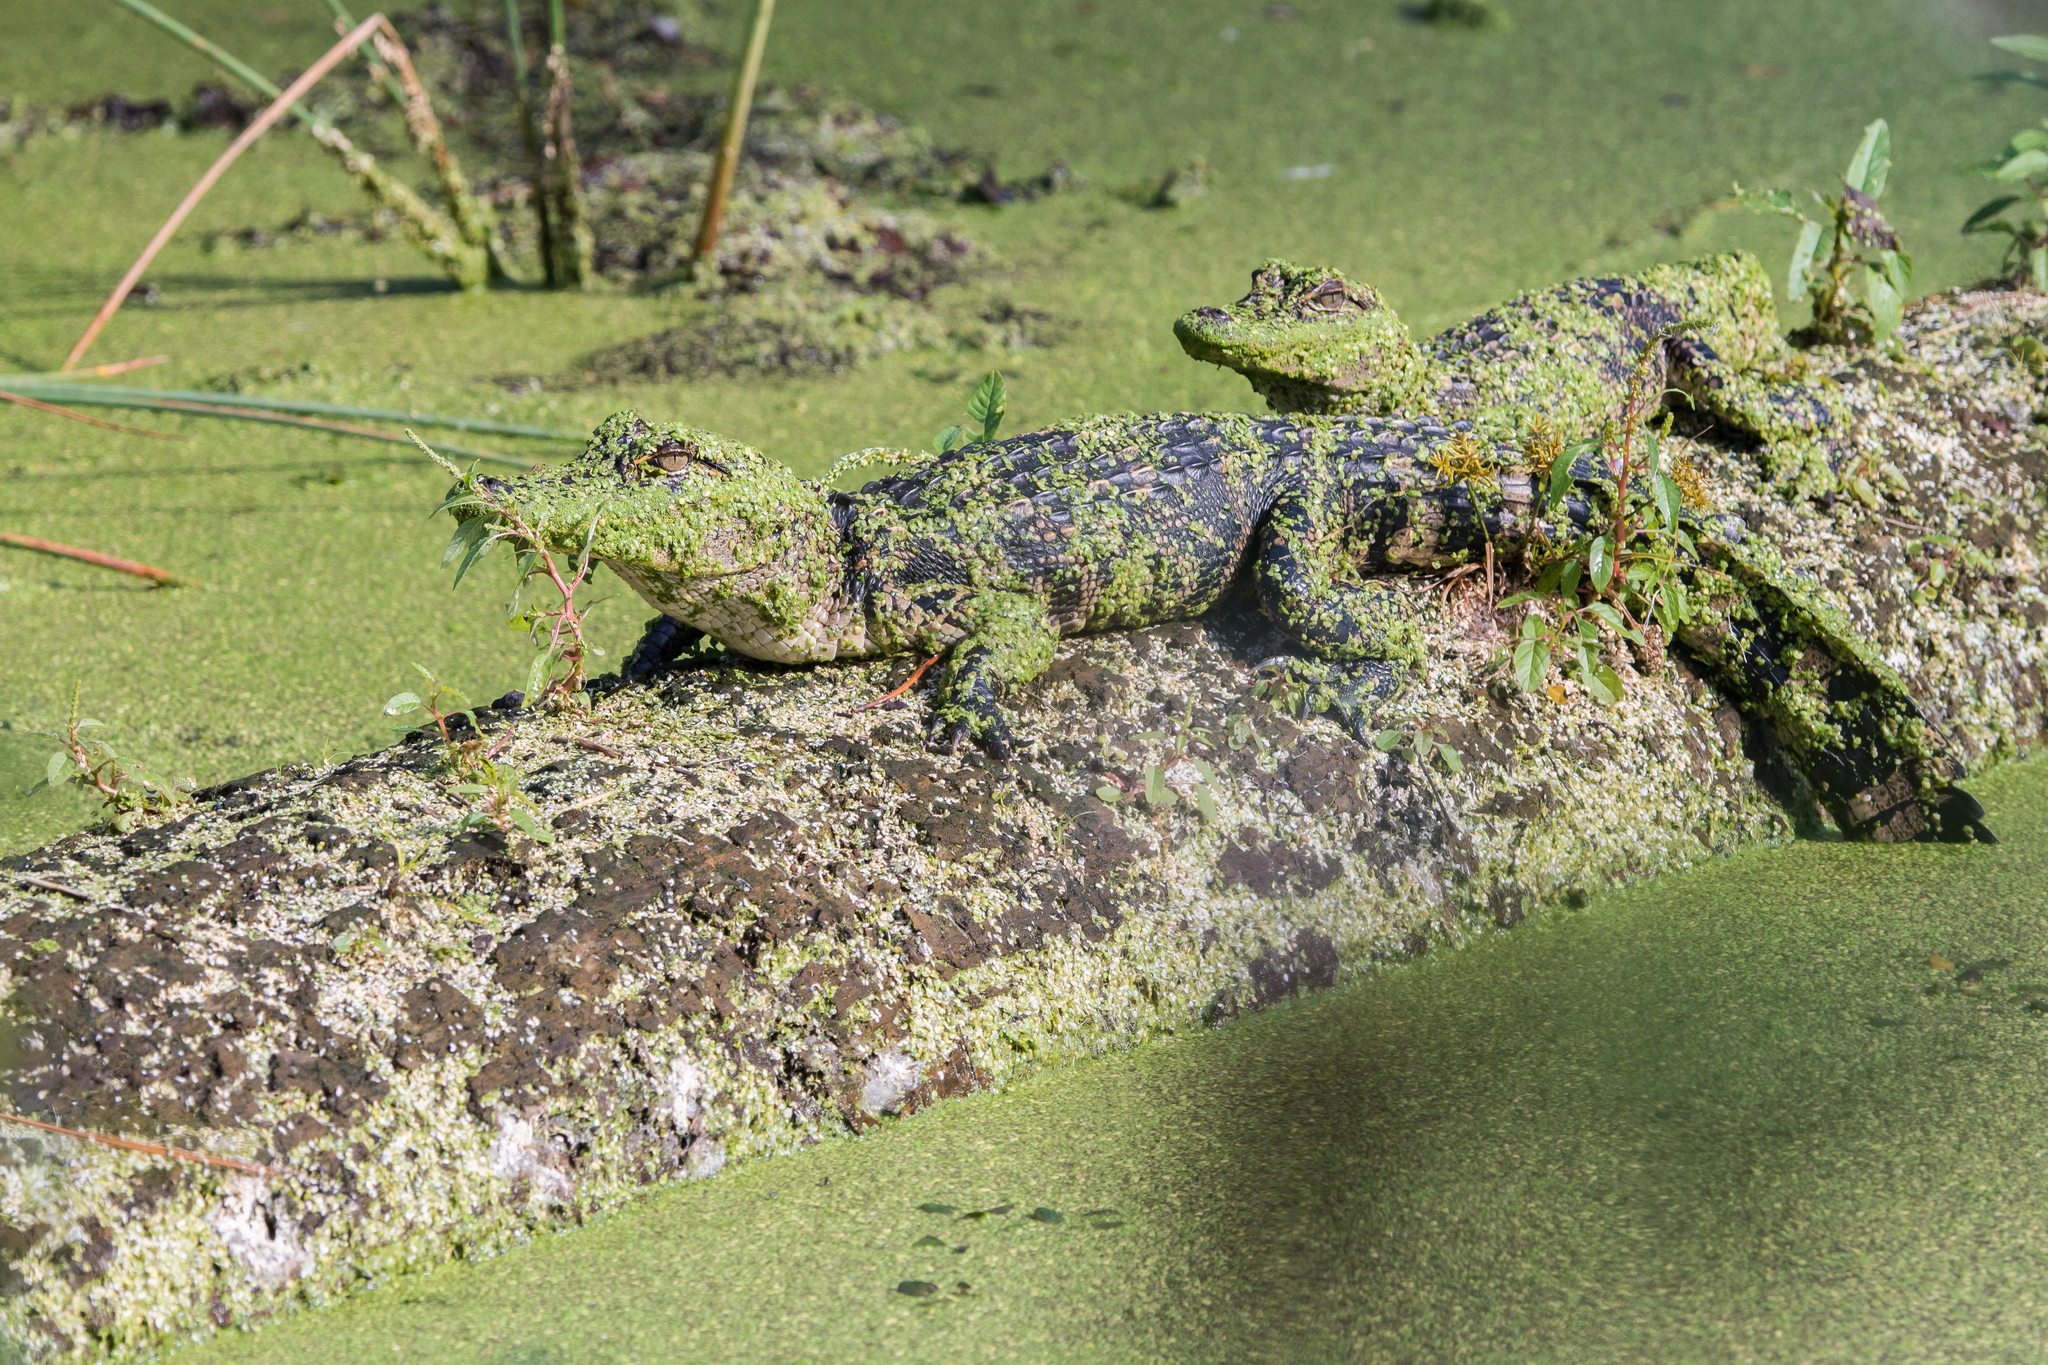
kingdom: Animalia
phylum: Chordata
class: Crocodylia
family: Alligatoridae
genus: Alligator
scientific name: Alligator mississippiensis
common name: American alligator
